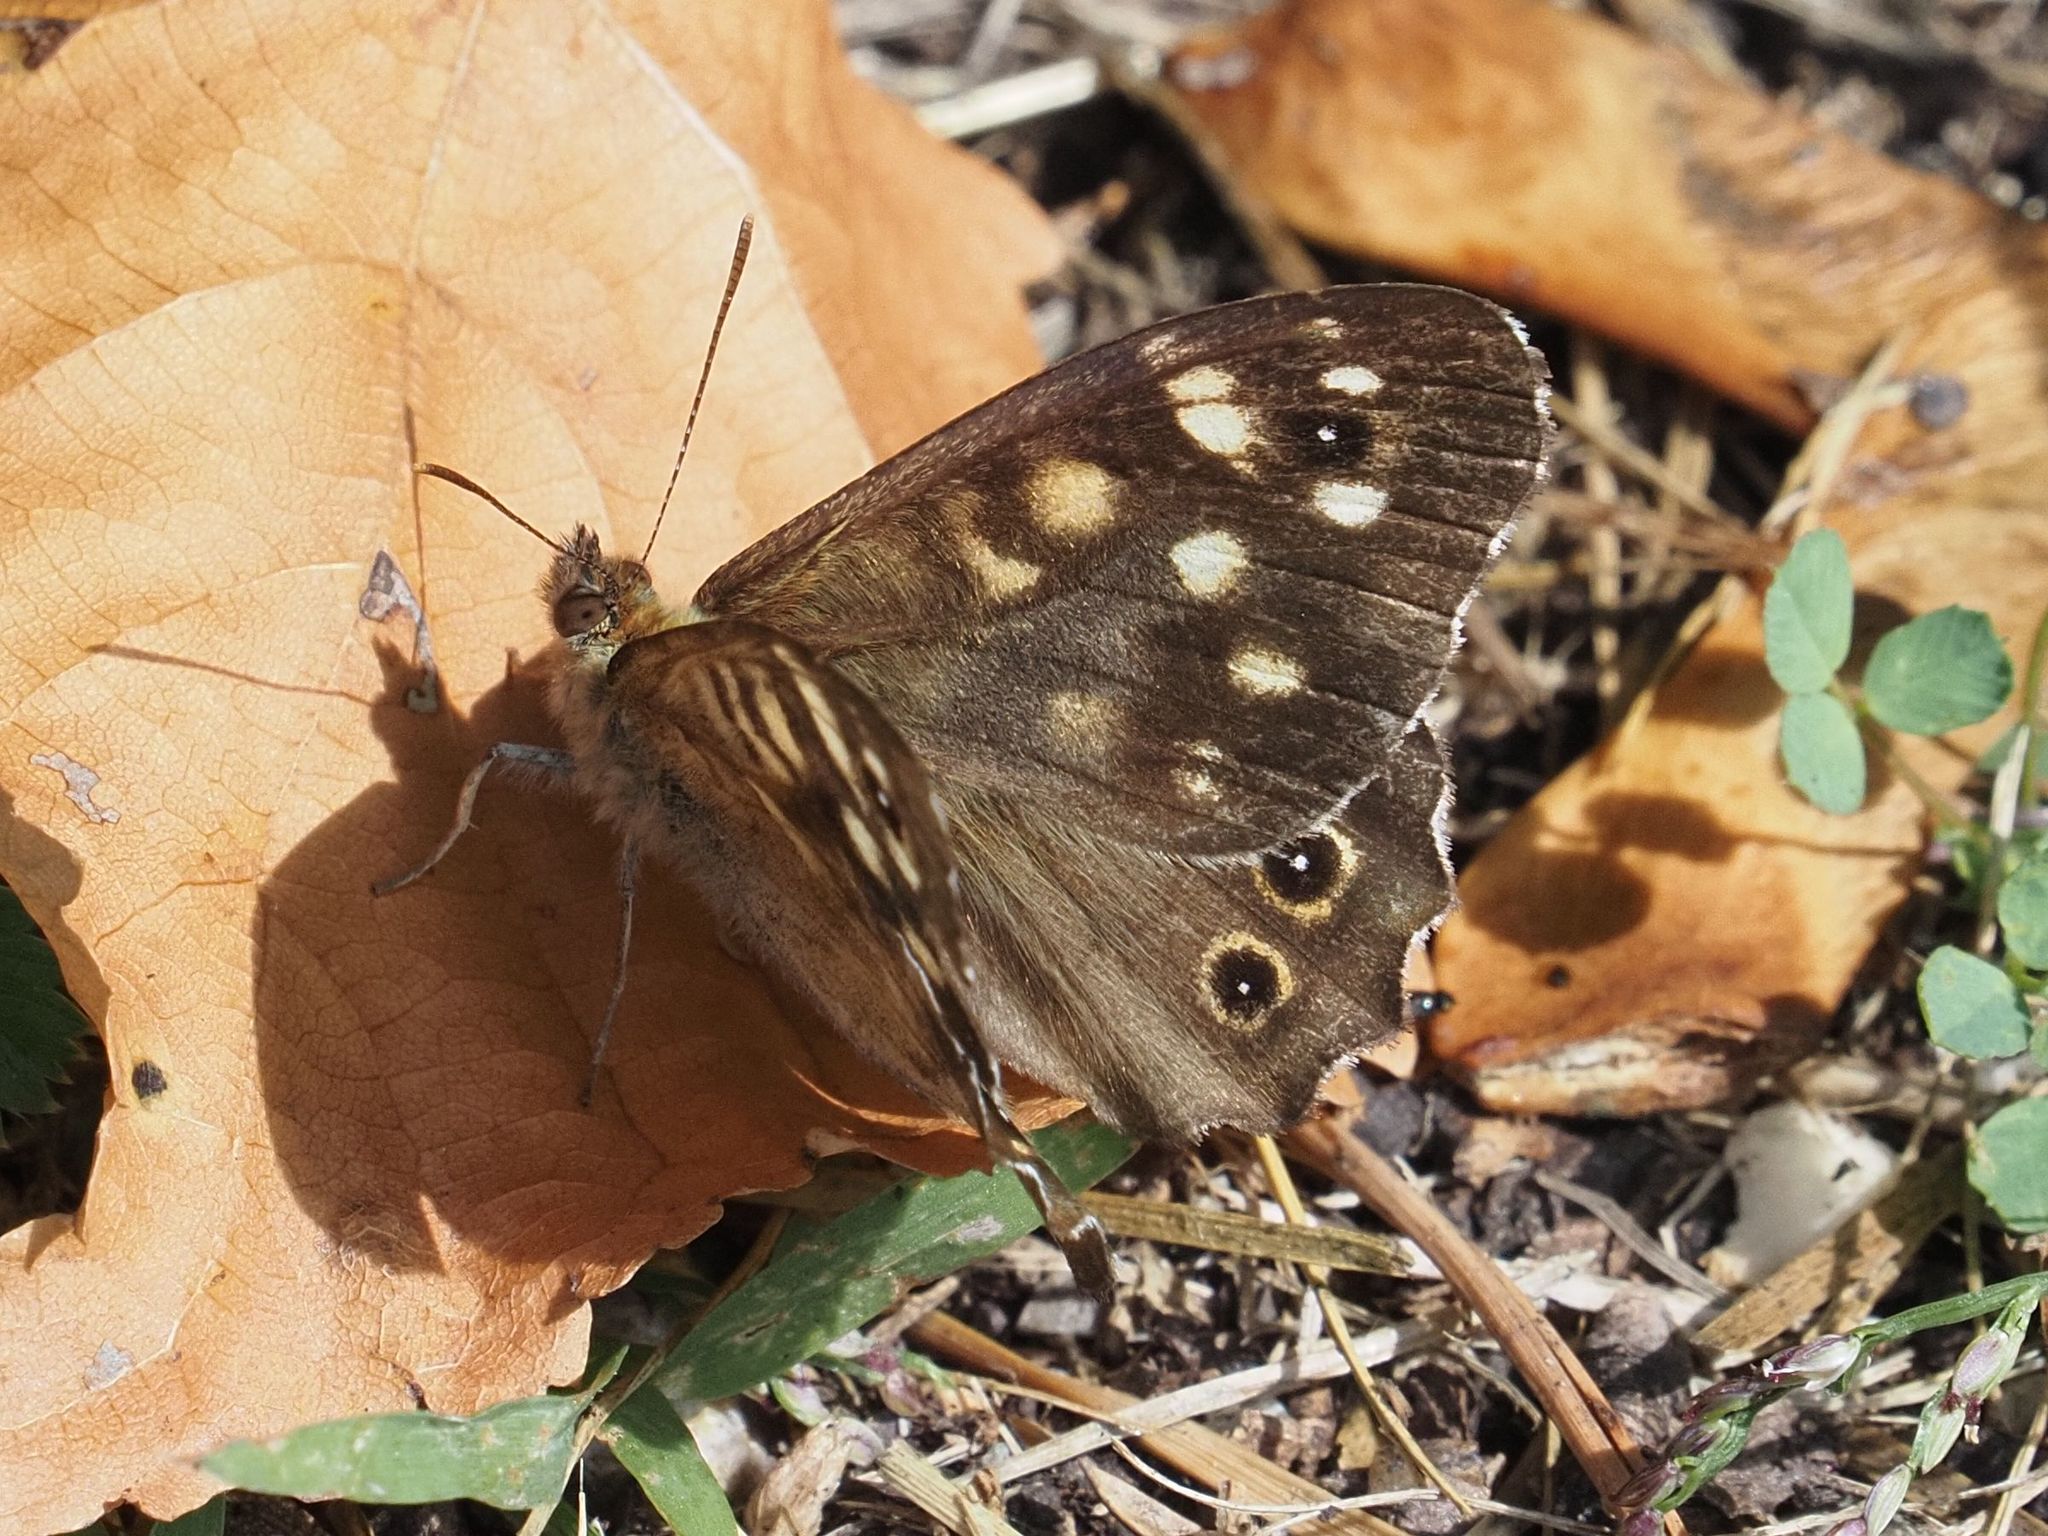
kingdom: Animalia
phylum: Arthropoda
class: Insecta
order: Lepidoptera
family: Nymphalidae
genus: Pararge
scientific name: Pararge aegeria
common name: Speckled wood
